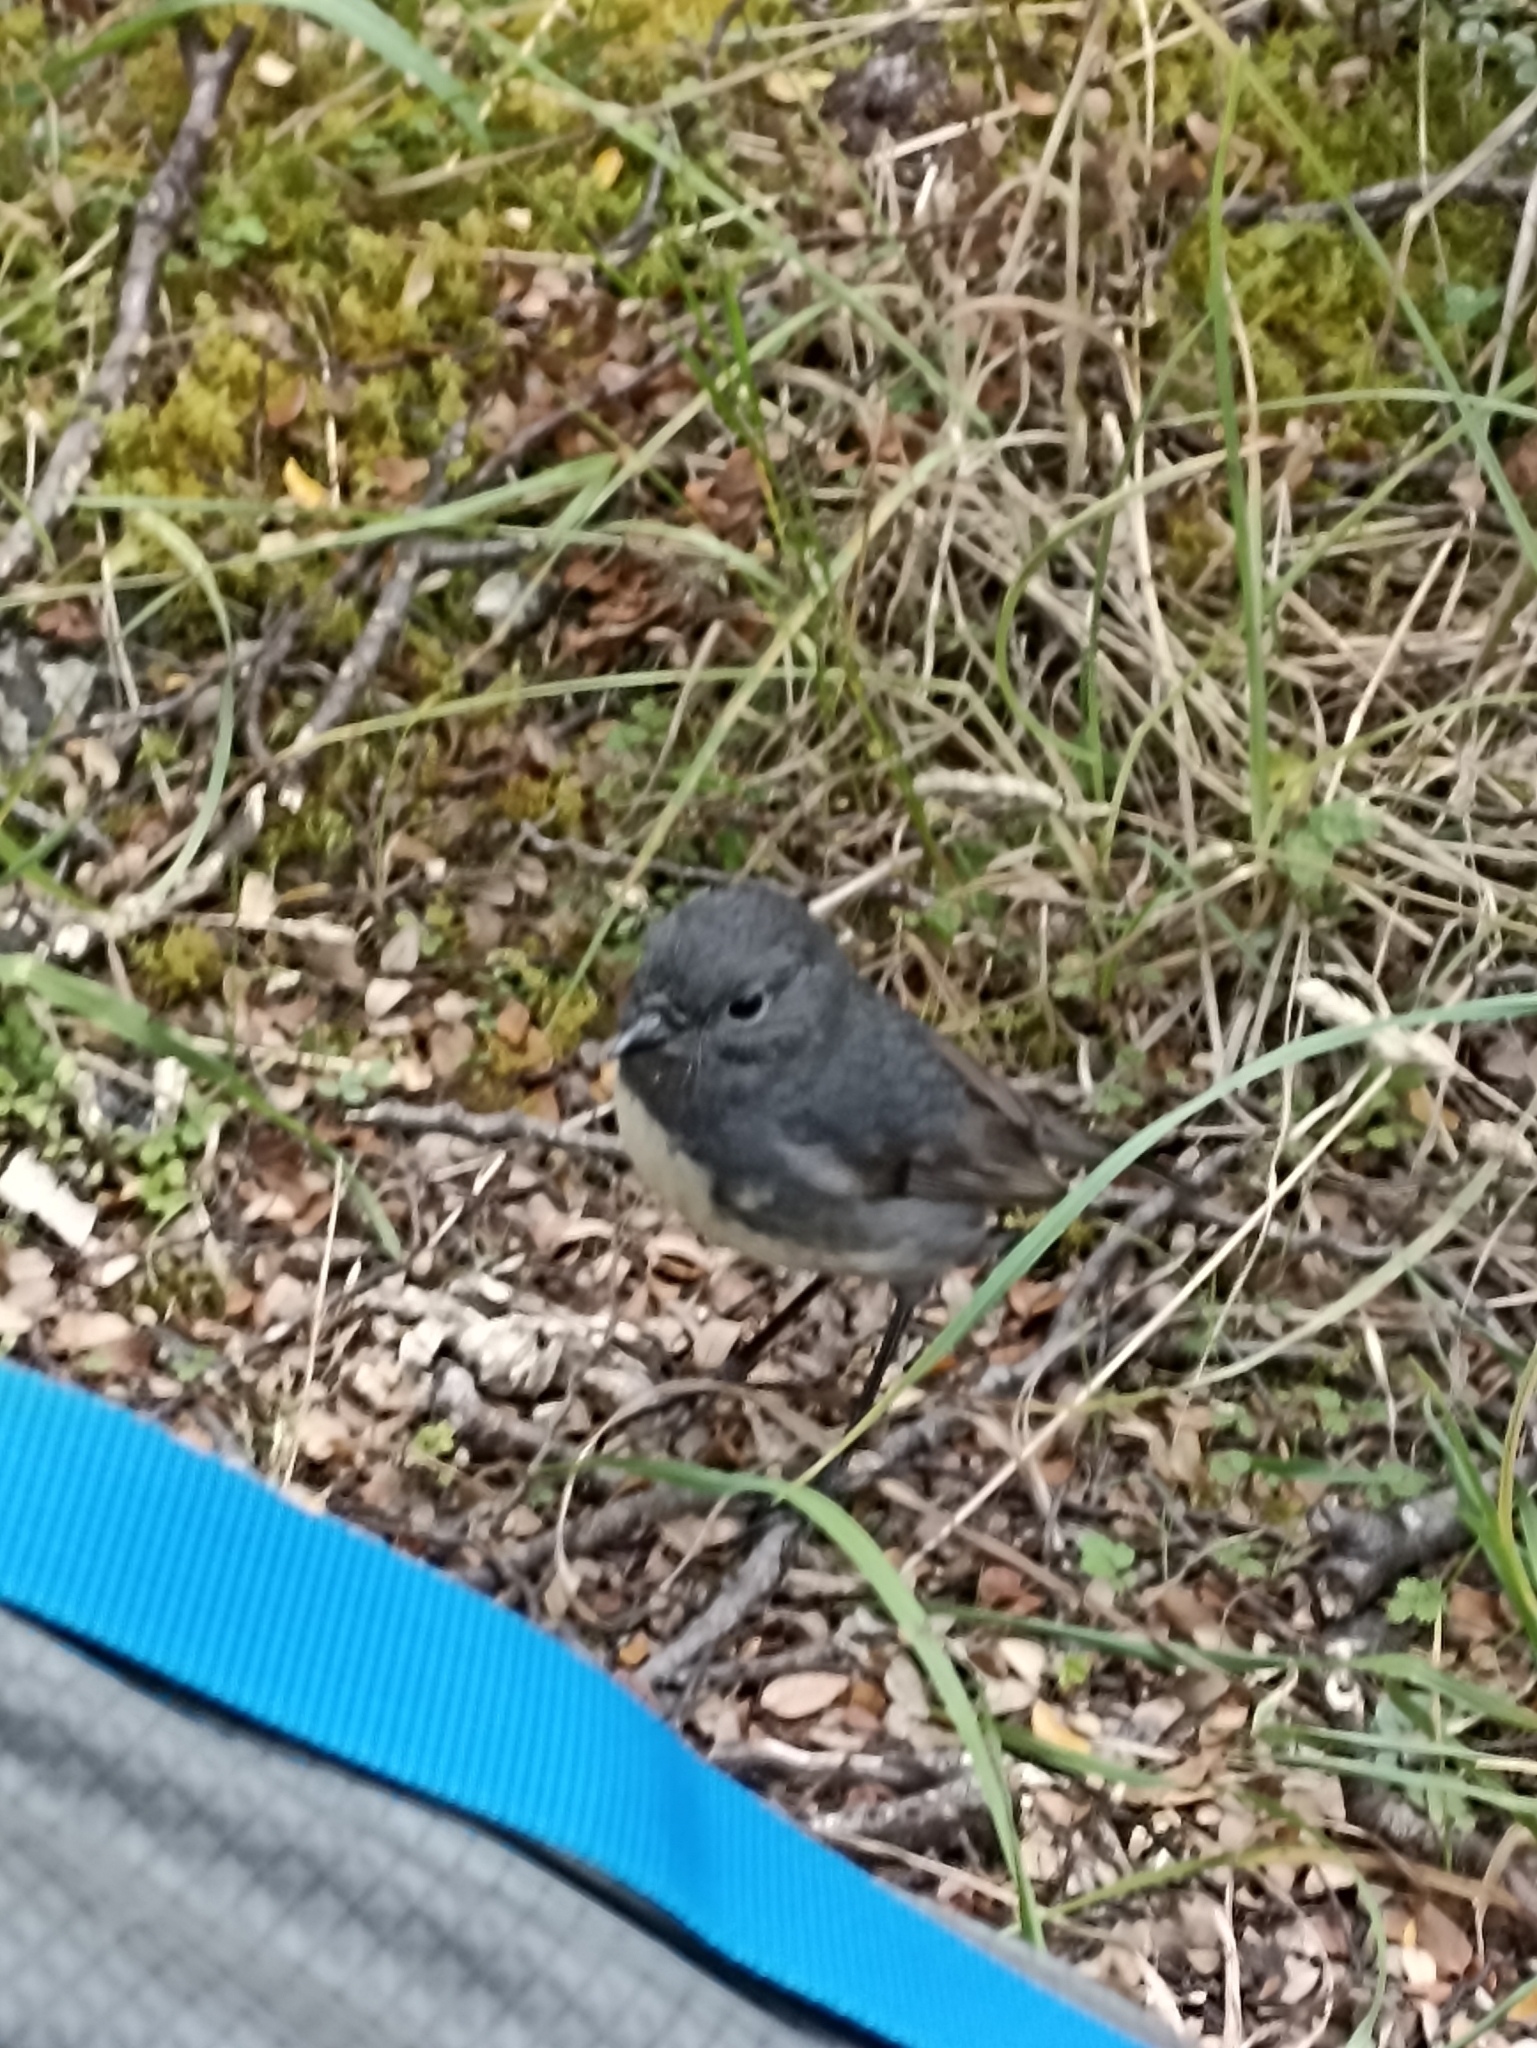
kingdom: Animalia
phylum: Chordata
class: Aves
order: Passeriformes
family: Petroicidae
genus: Petroica
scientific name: Petroica australis
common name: New zealand robin
